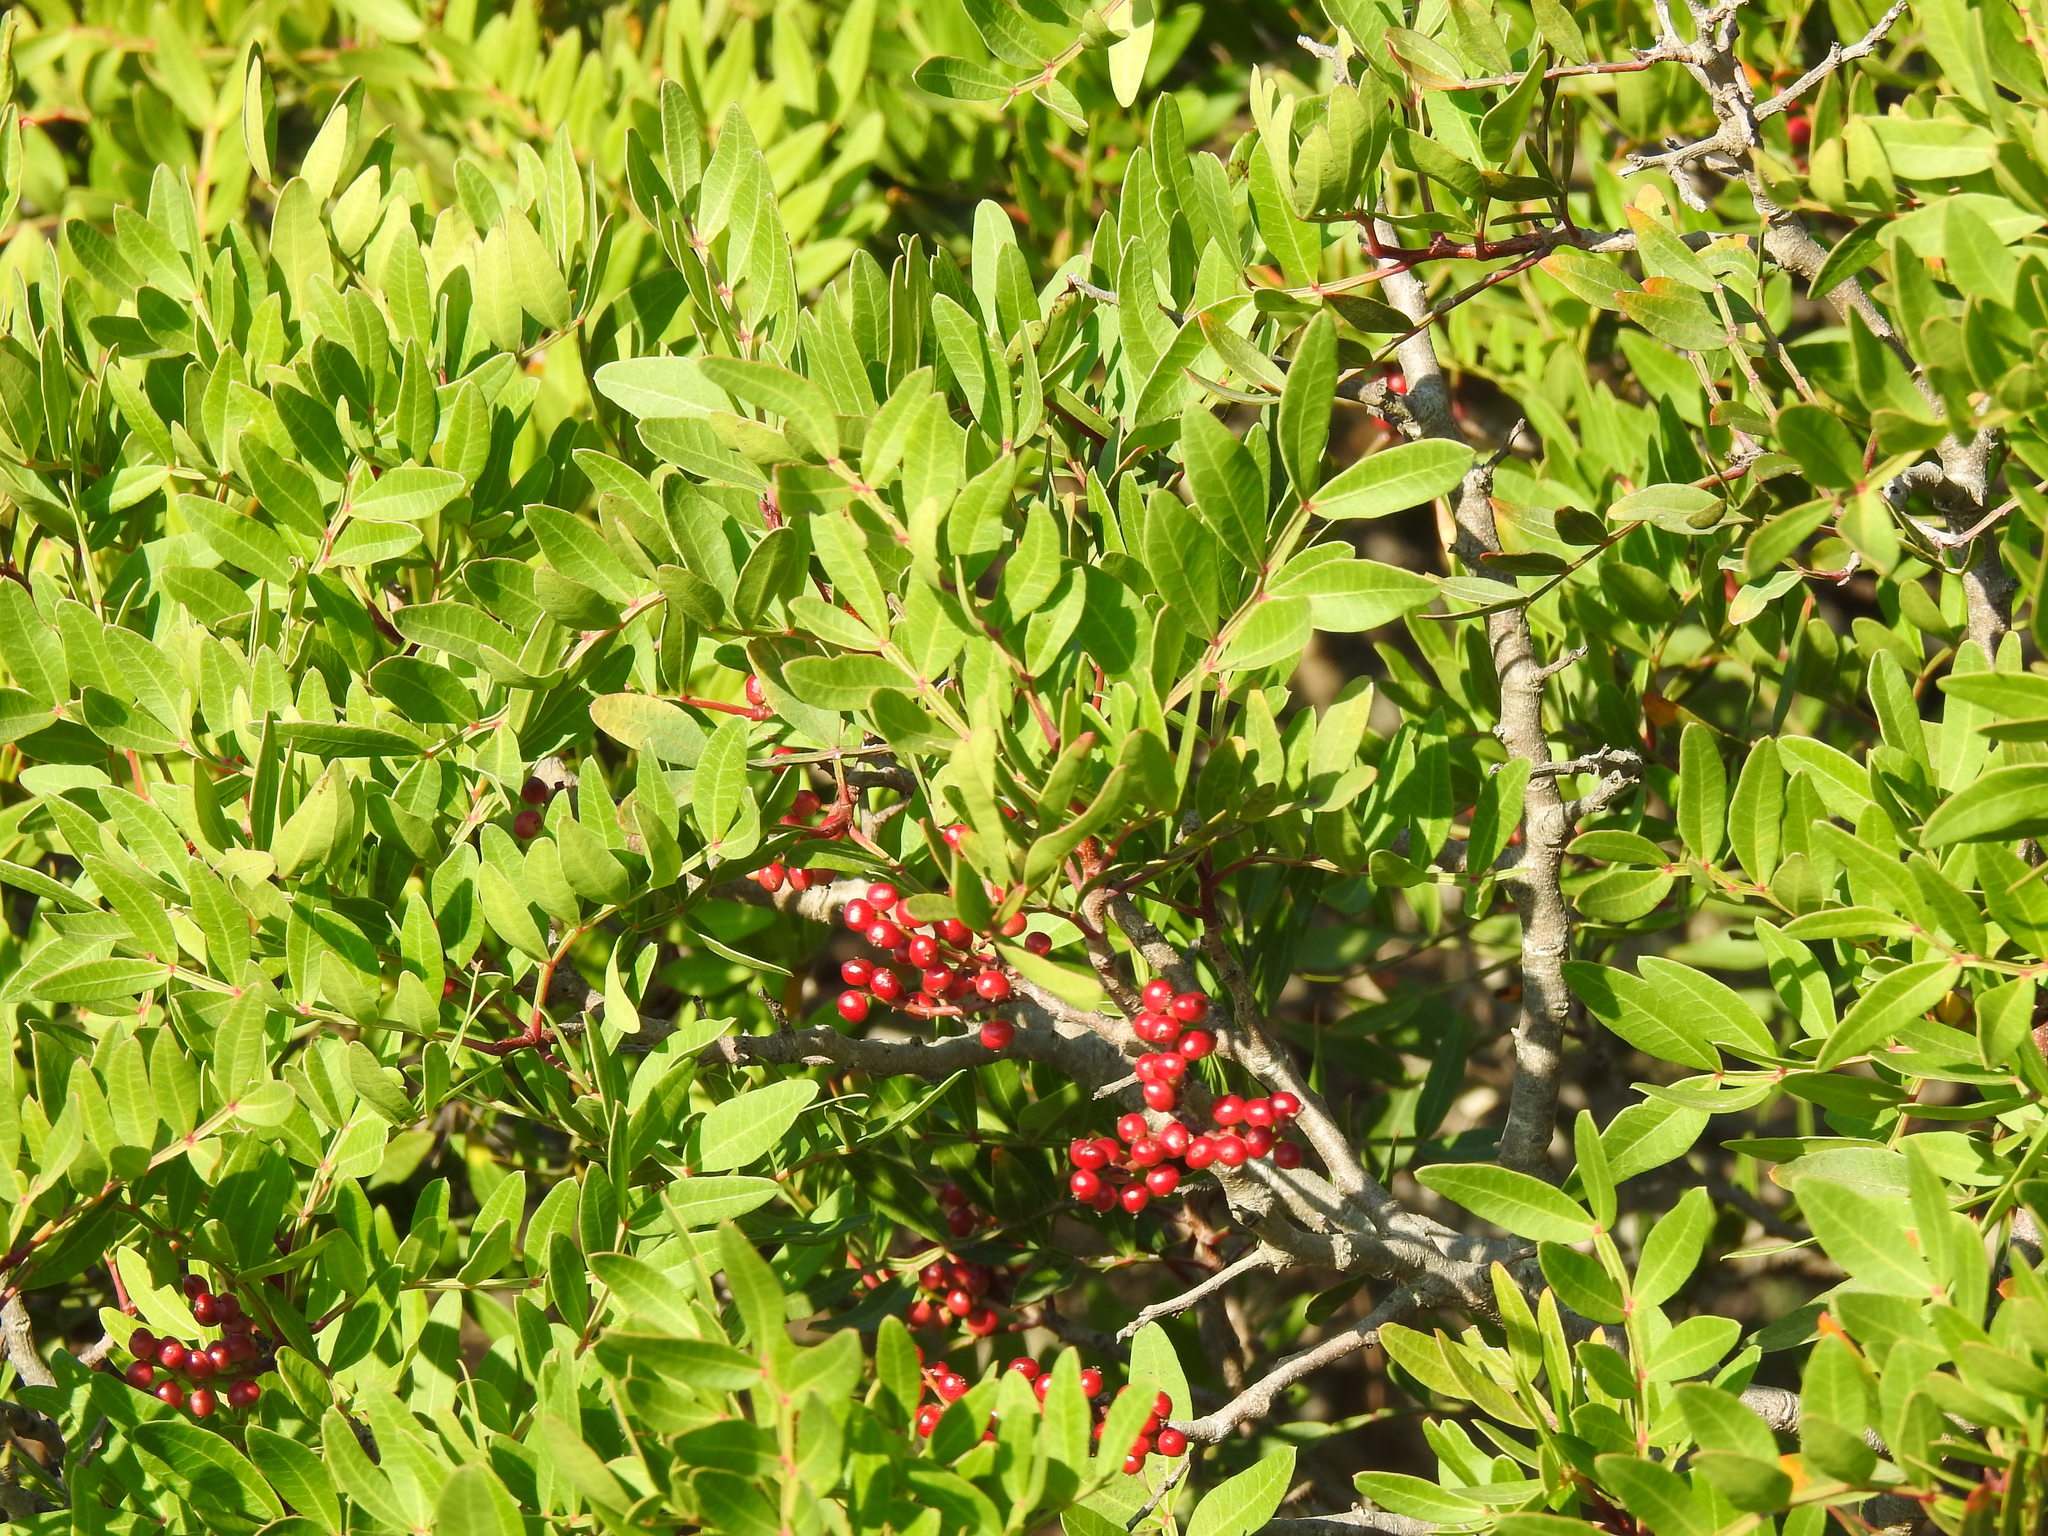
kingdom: Plantae
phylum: Tracheophyta
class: Magnoliopsida
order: Sapindales
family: Anacardiaceae
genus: Pistacia
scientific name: Pistacia lentiscus
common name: Lentisk
